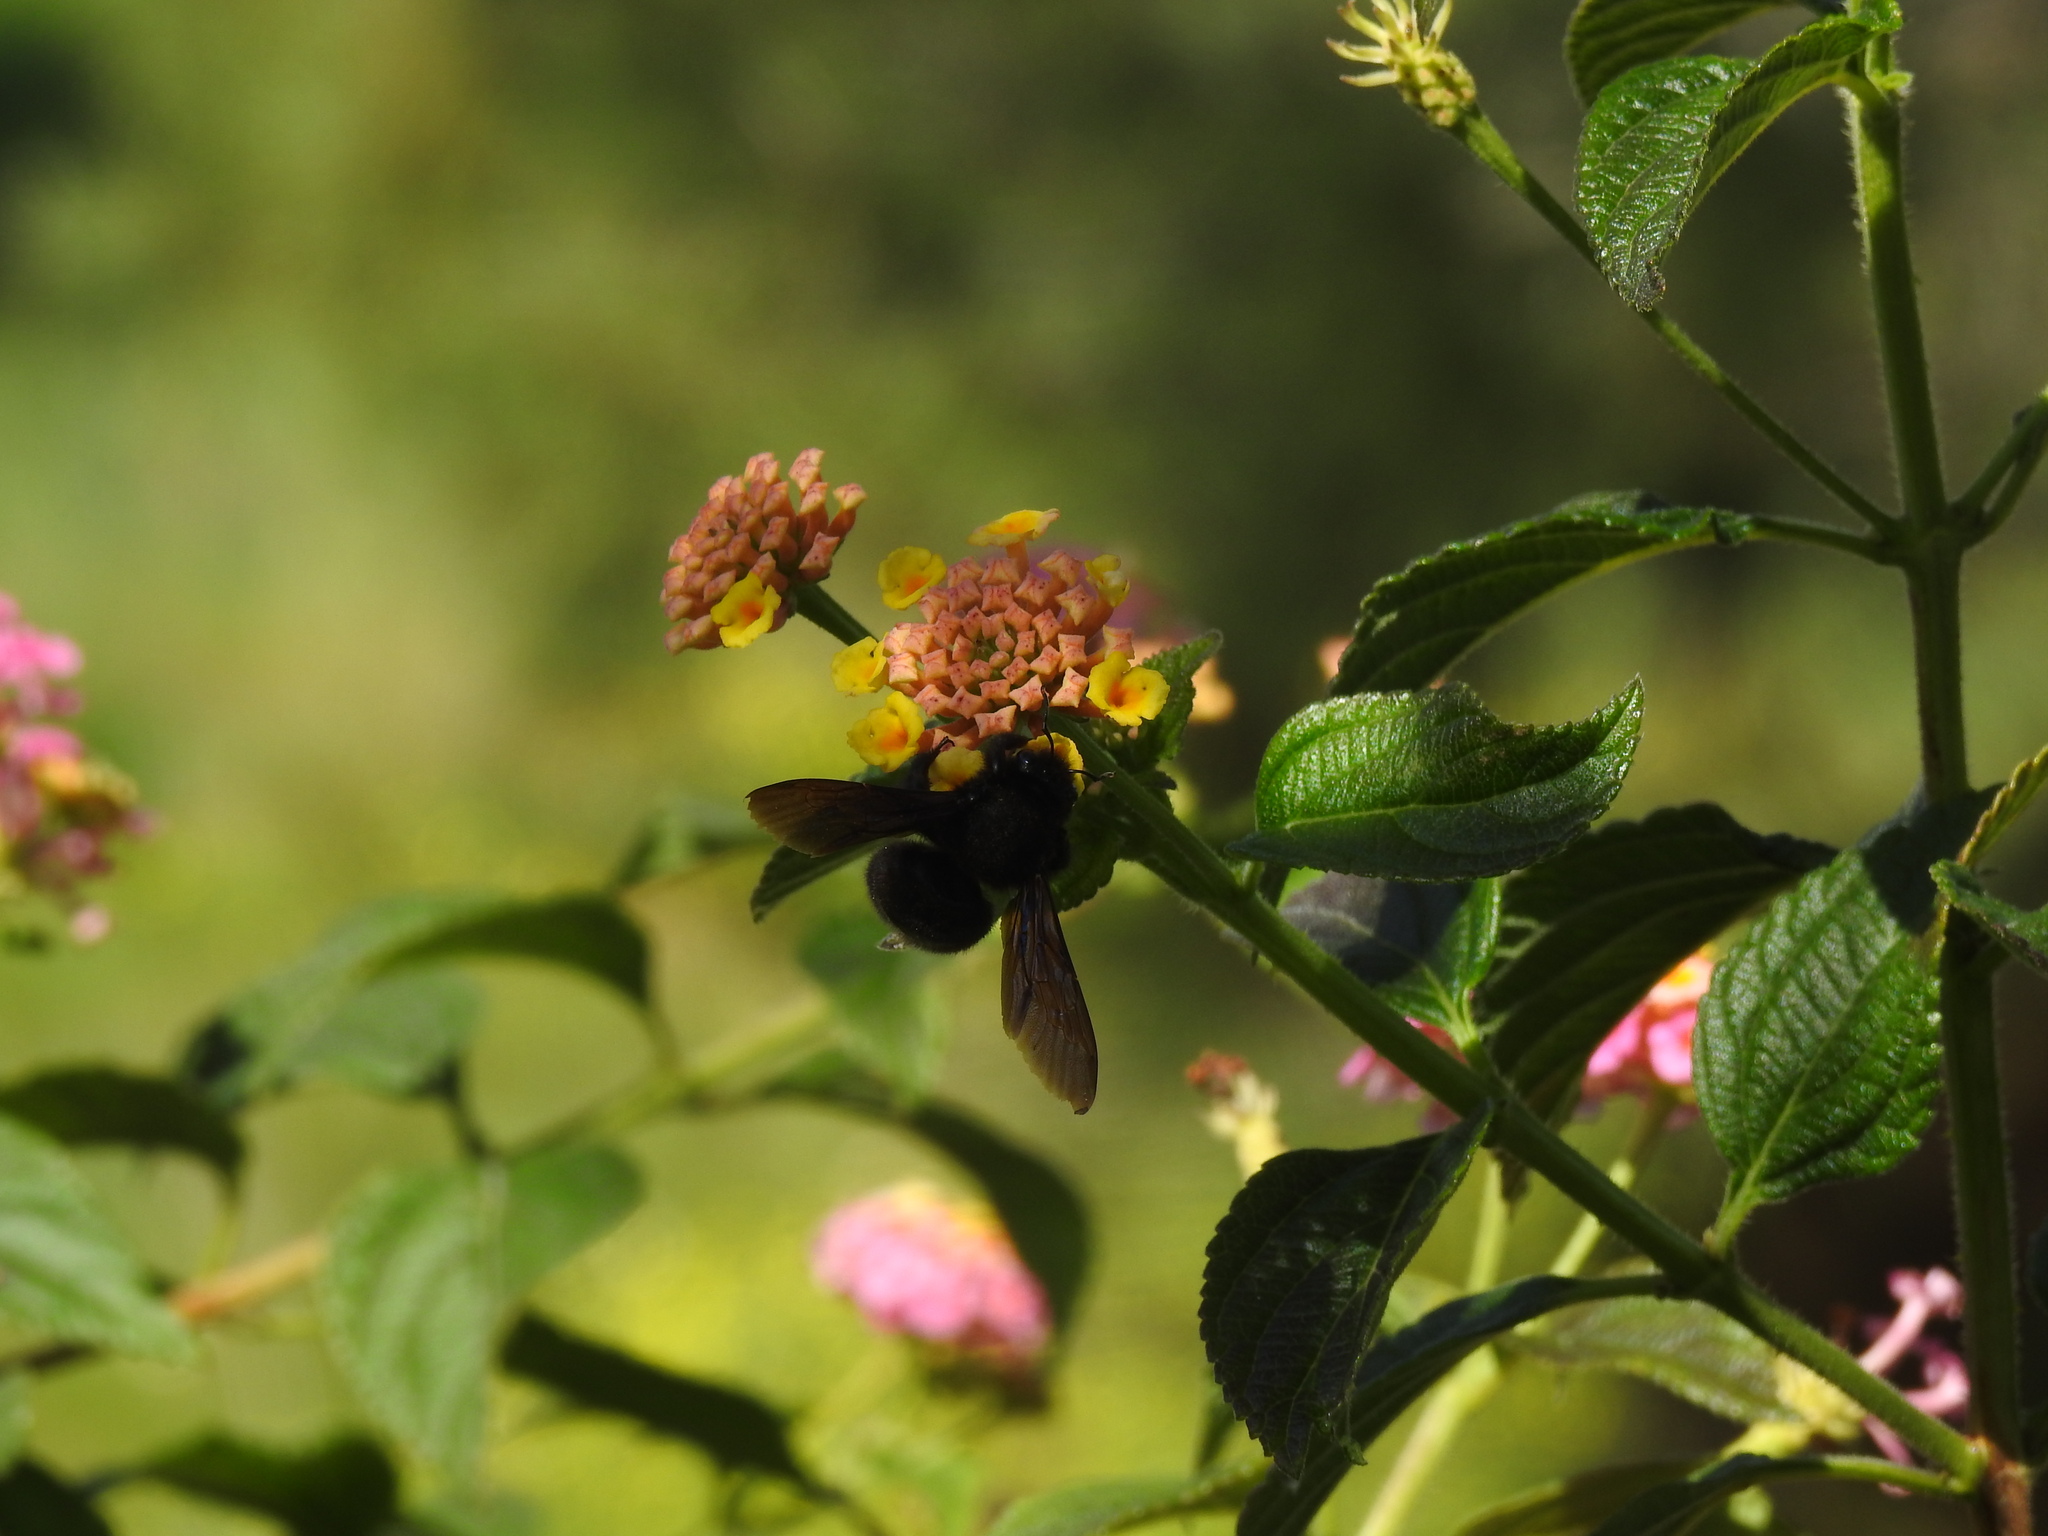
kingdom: Animalia
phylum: Arthropoda
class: Insecta
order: Hymenoptera
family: Apidae
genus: Xylocopa
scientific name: Xylocopa violacea
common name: Violet carpenter bee
